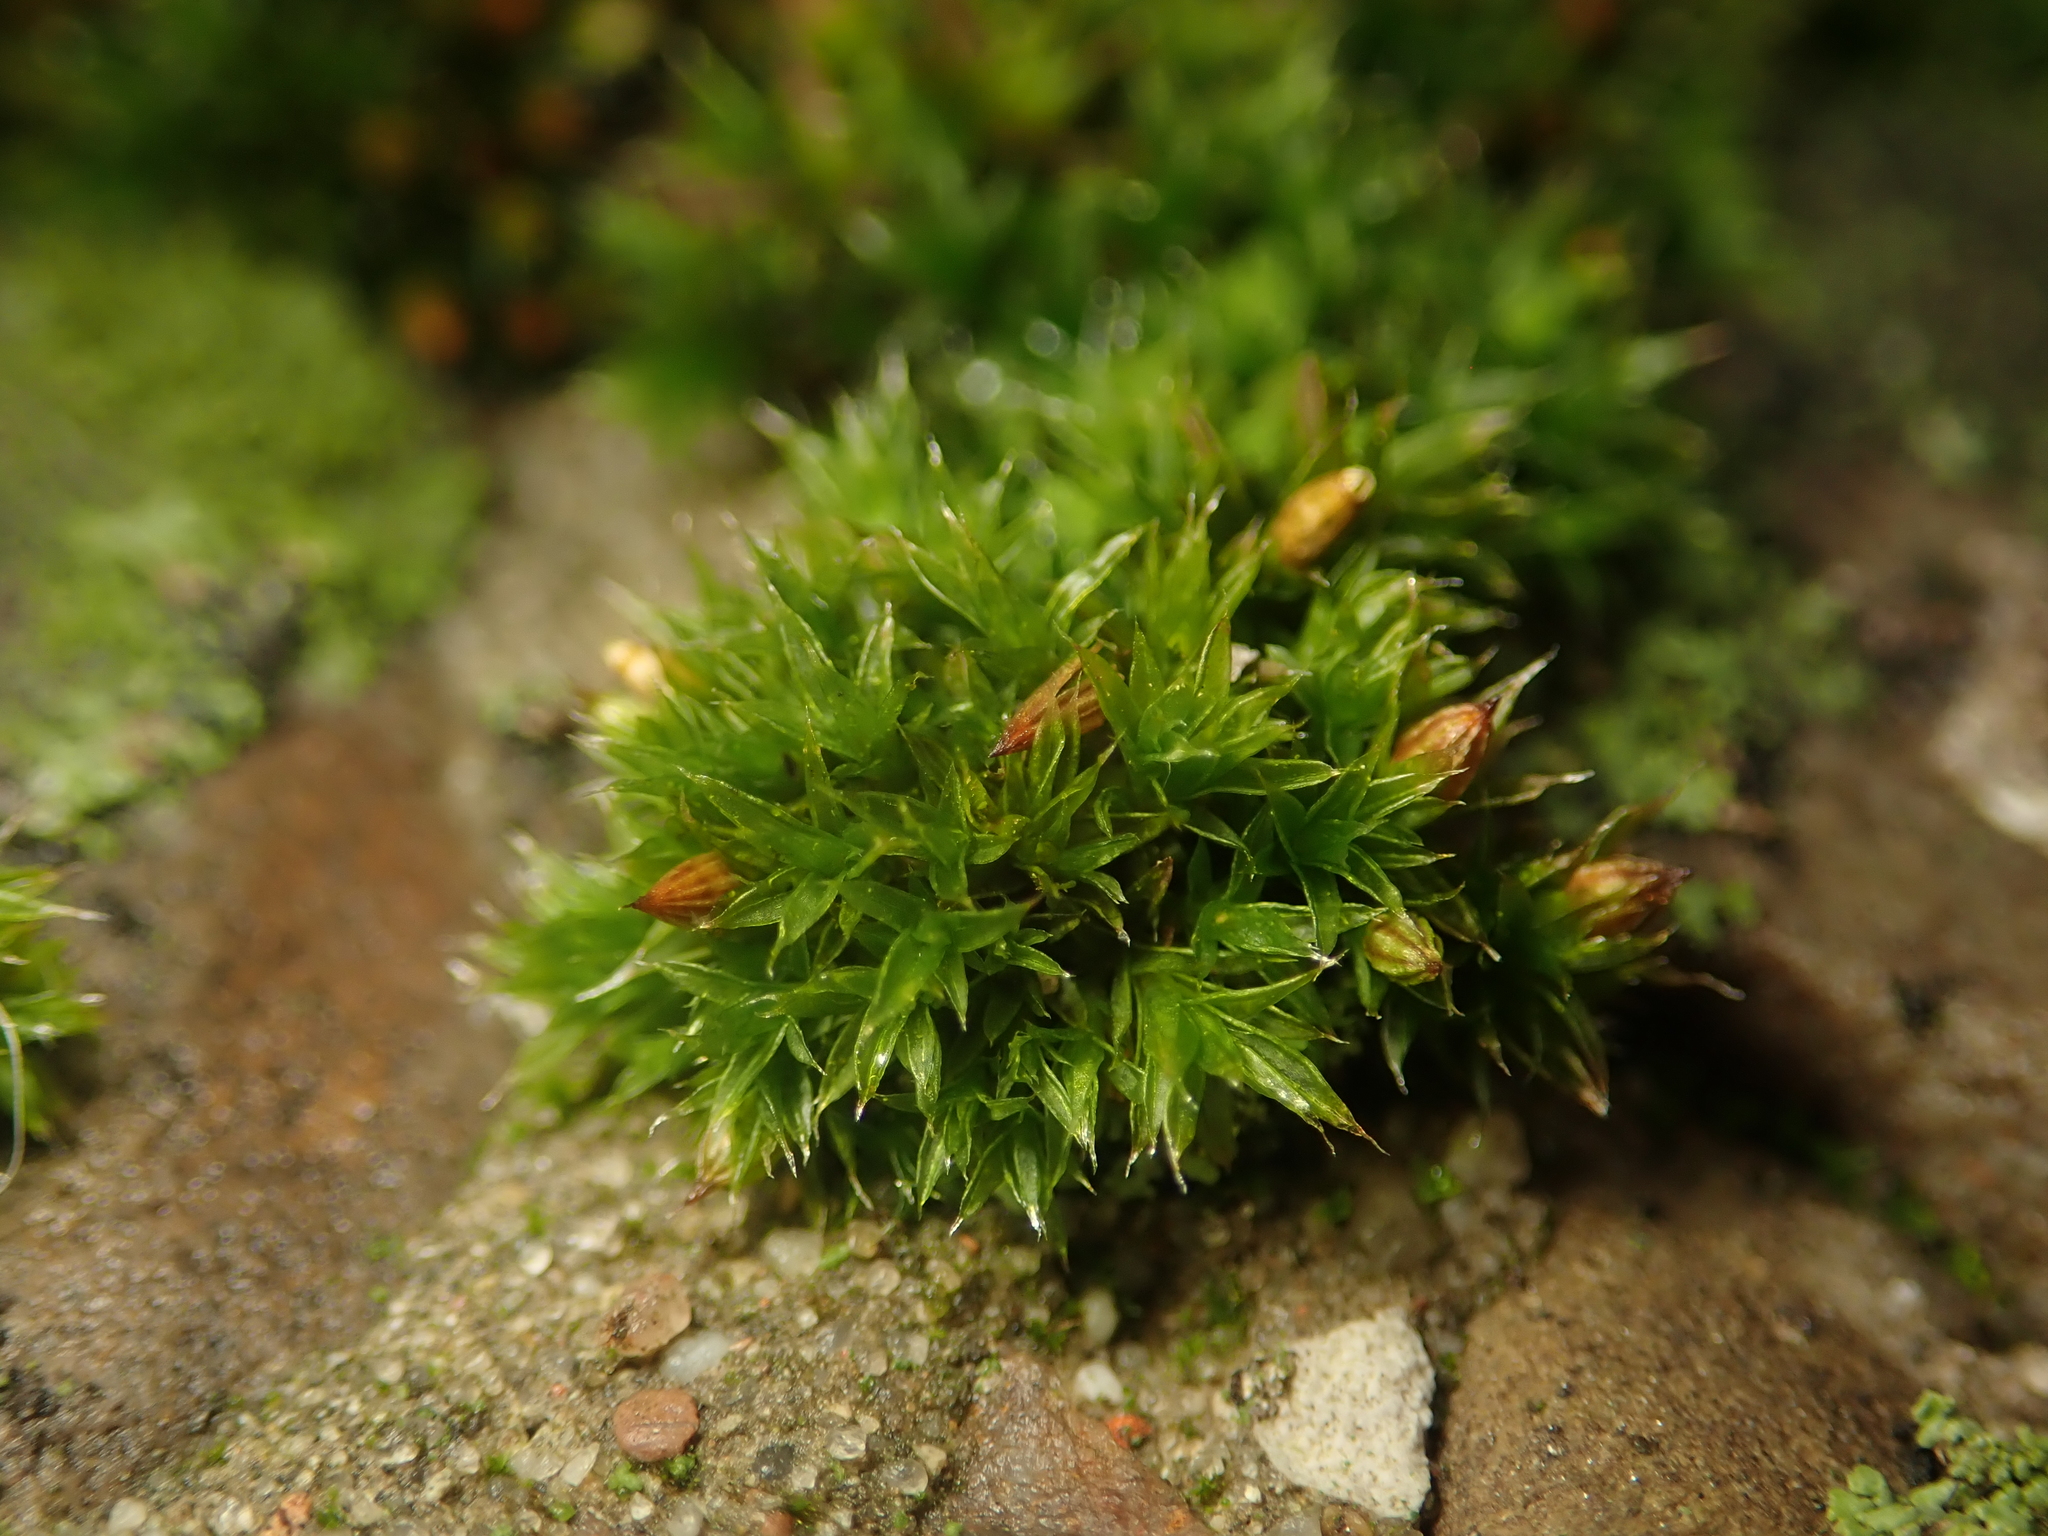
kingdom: Plantae
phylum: Bryophyta
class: Bryopsida
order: Orthotrichales
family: Orthotrichaceae
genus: Orthotrichum
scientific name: Orthotrichum diaphanum
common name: White-tipped bristle-moss
